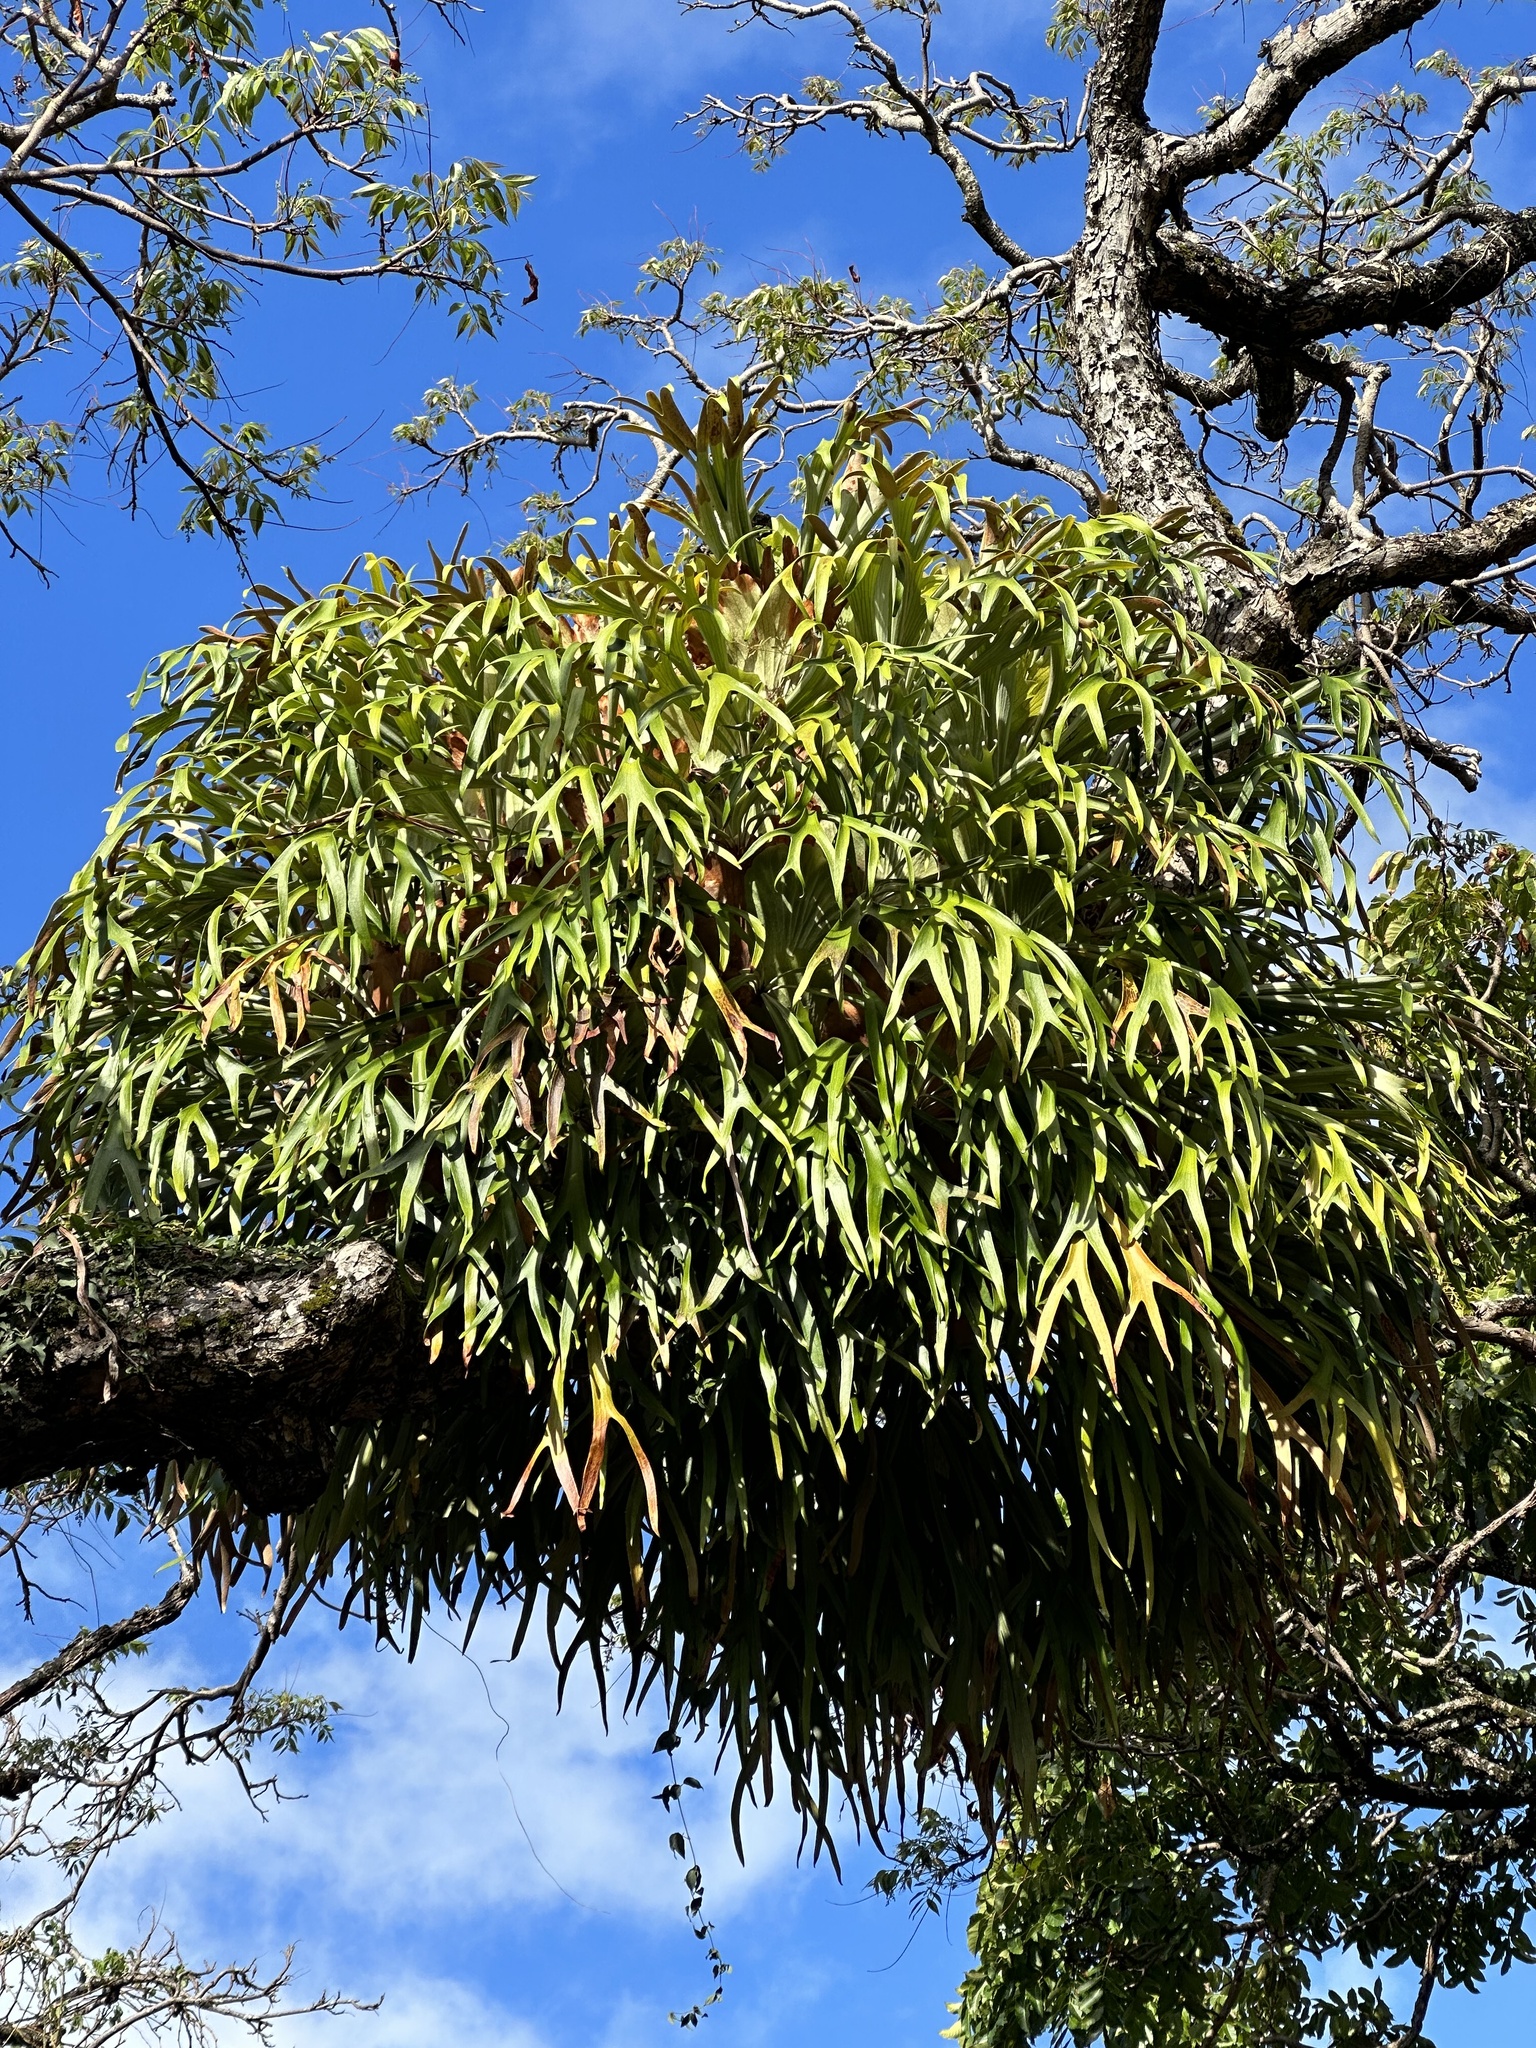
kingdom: Plantae
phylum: Tracheophyta
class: Polypodiopsida
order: Polypodiales
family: Polypodiaceae
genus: Platycerium
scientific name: Platycerium bifurcatum
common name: Elkhorn fern
